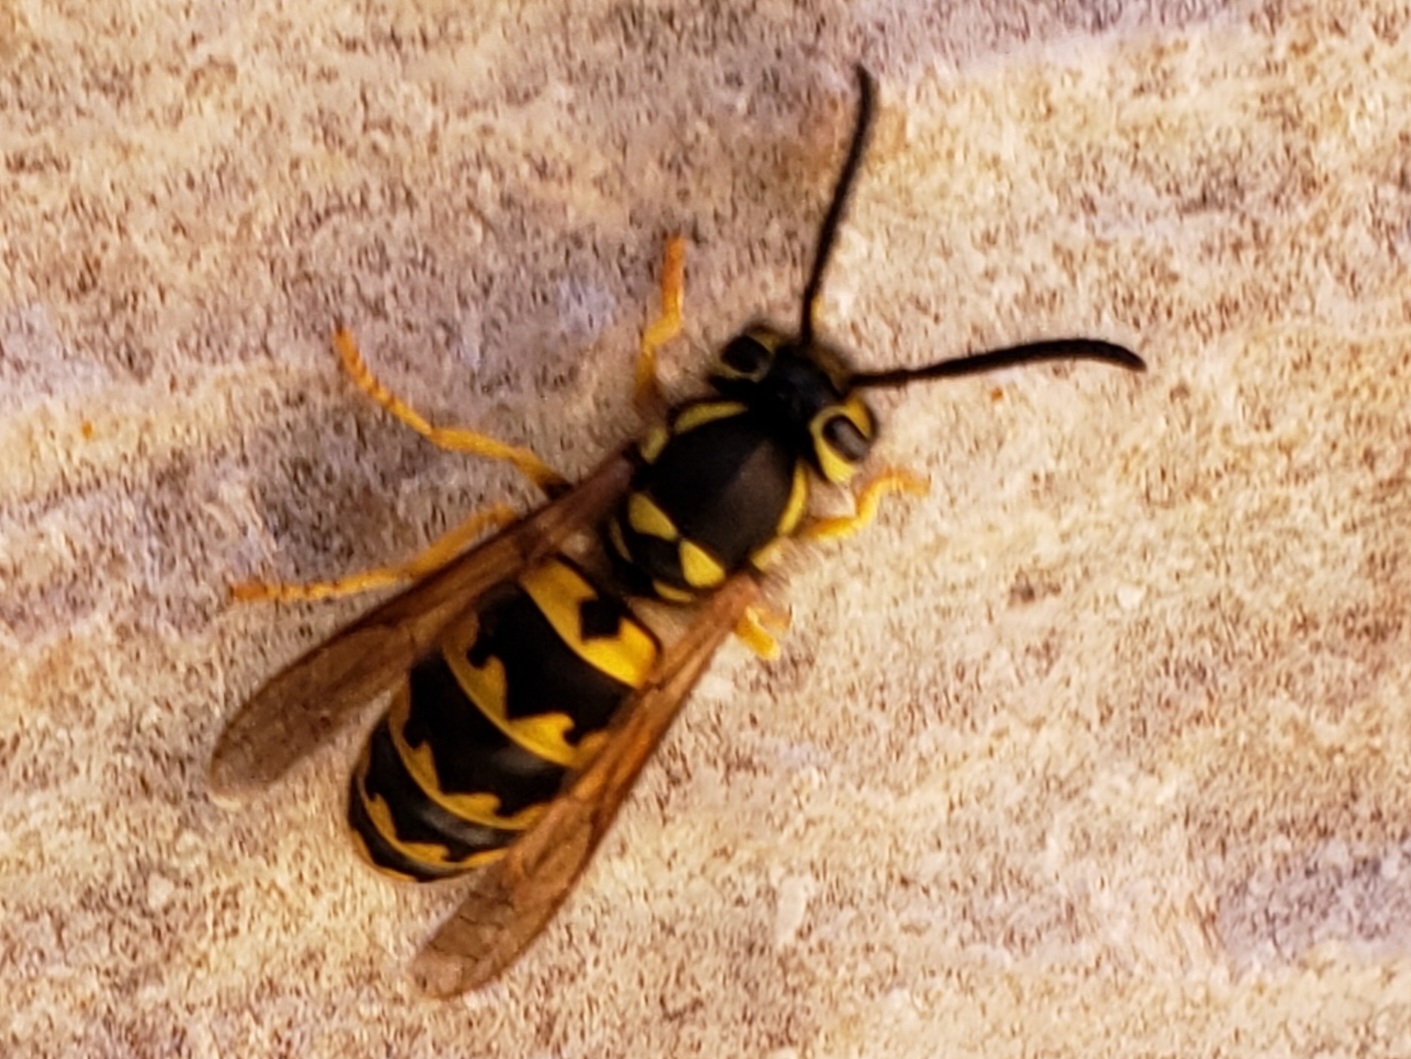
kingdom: Animalia
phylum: Arthropoda
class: Insecta
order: Hymenoptera
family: Vespidae
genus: Vespula
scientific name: Vespula pensylvanica
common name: Western yellowjacket
